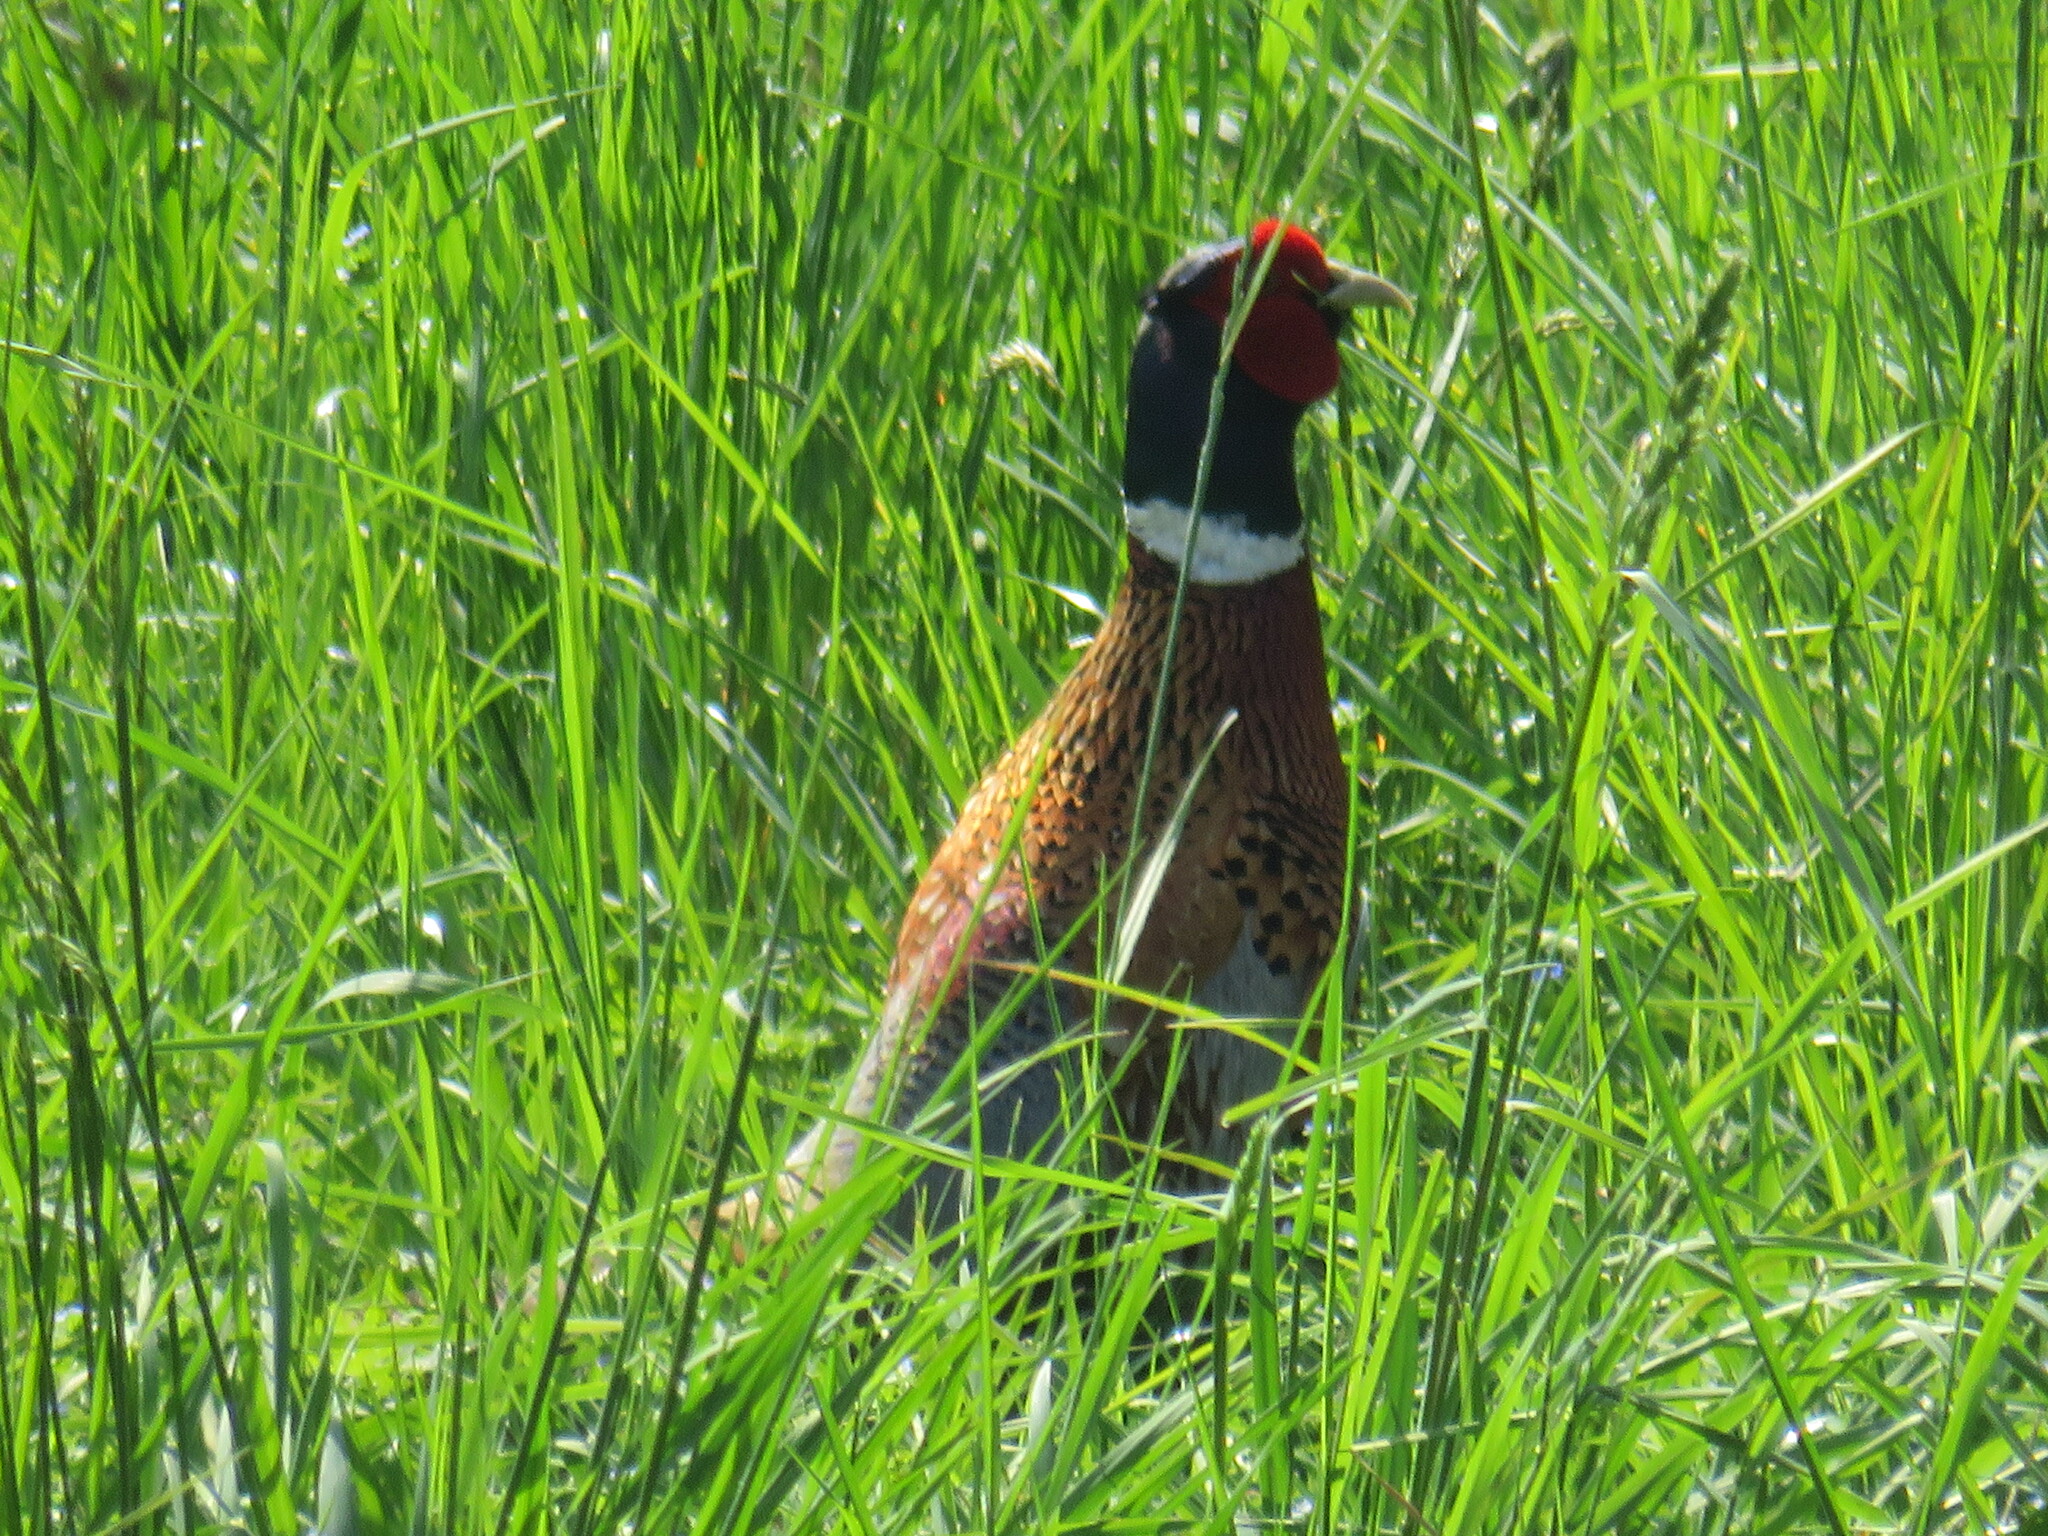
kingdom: Animalia
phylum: Chordata
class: Aves
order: Galliformes
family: Phasianidae
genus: Phasianus
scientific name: Phasianus colchicus
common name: Common pheasant
